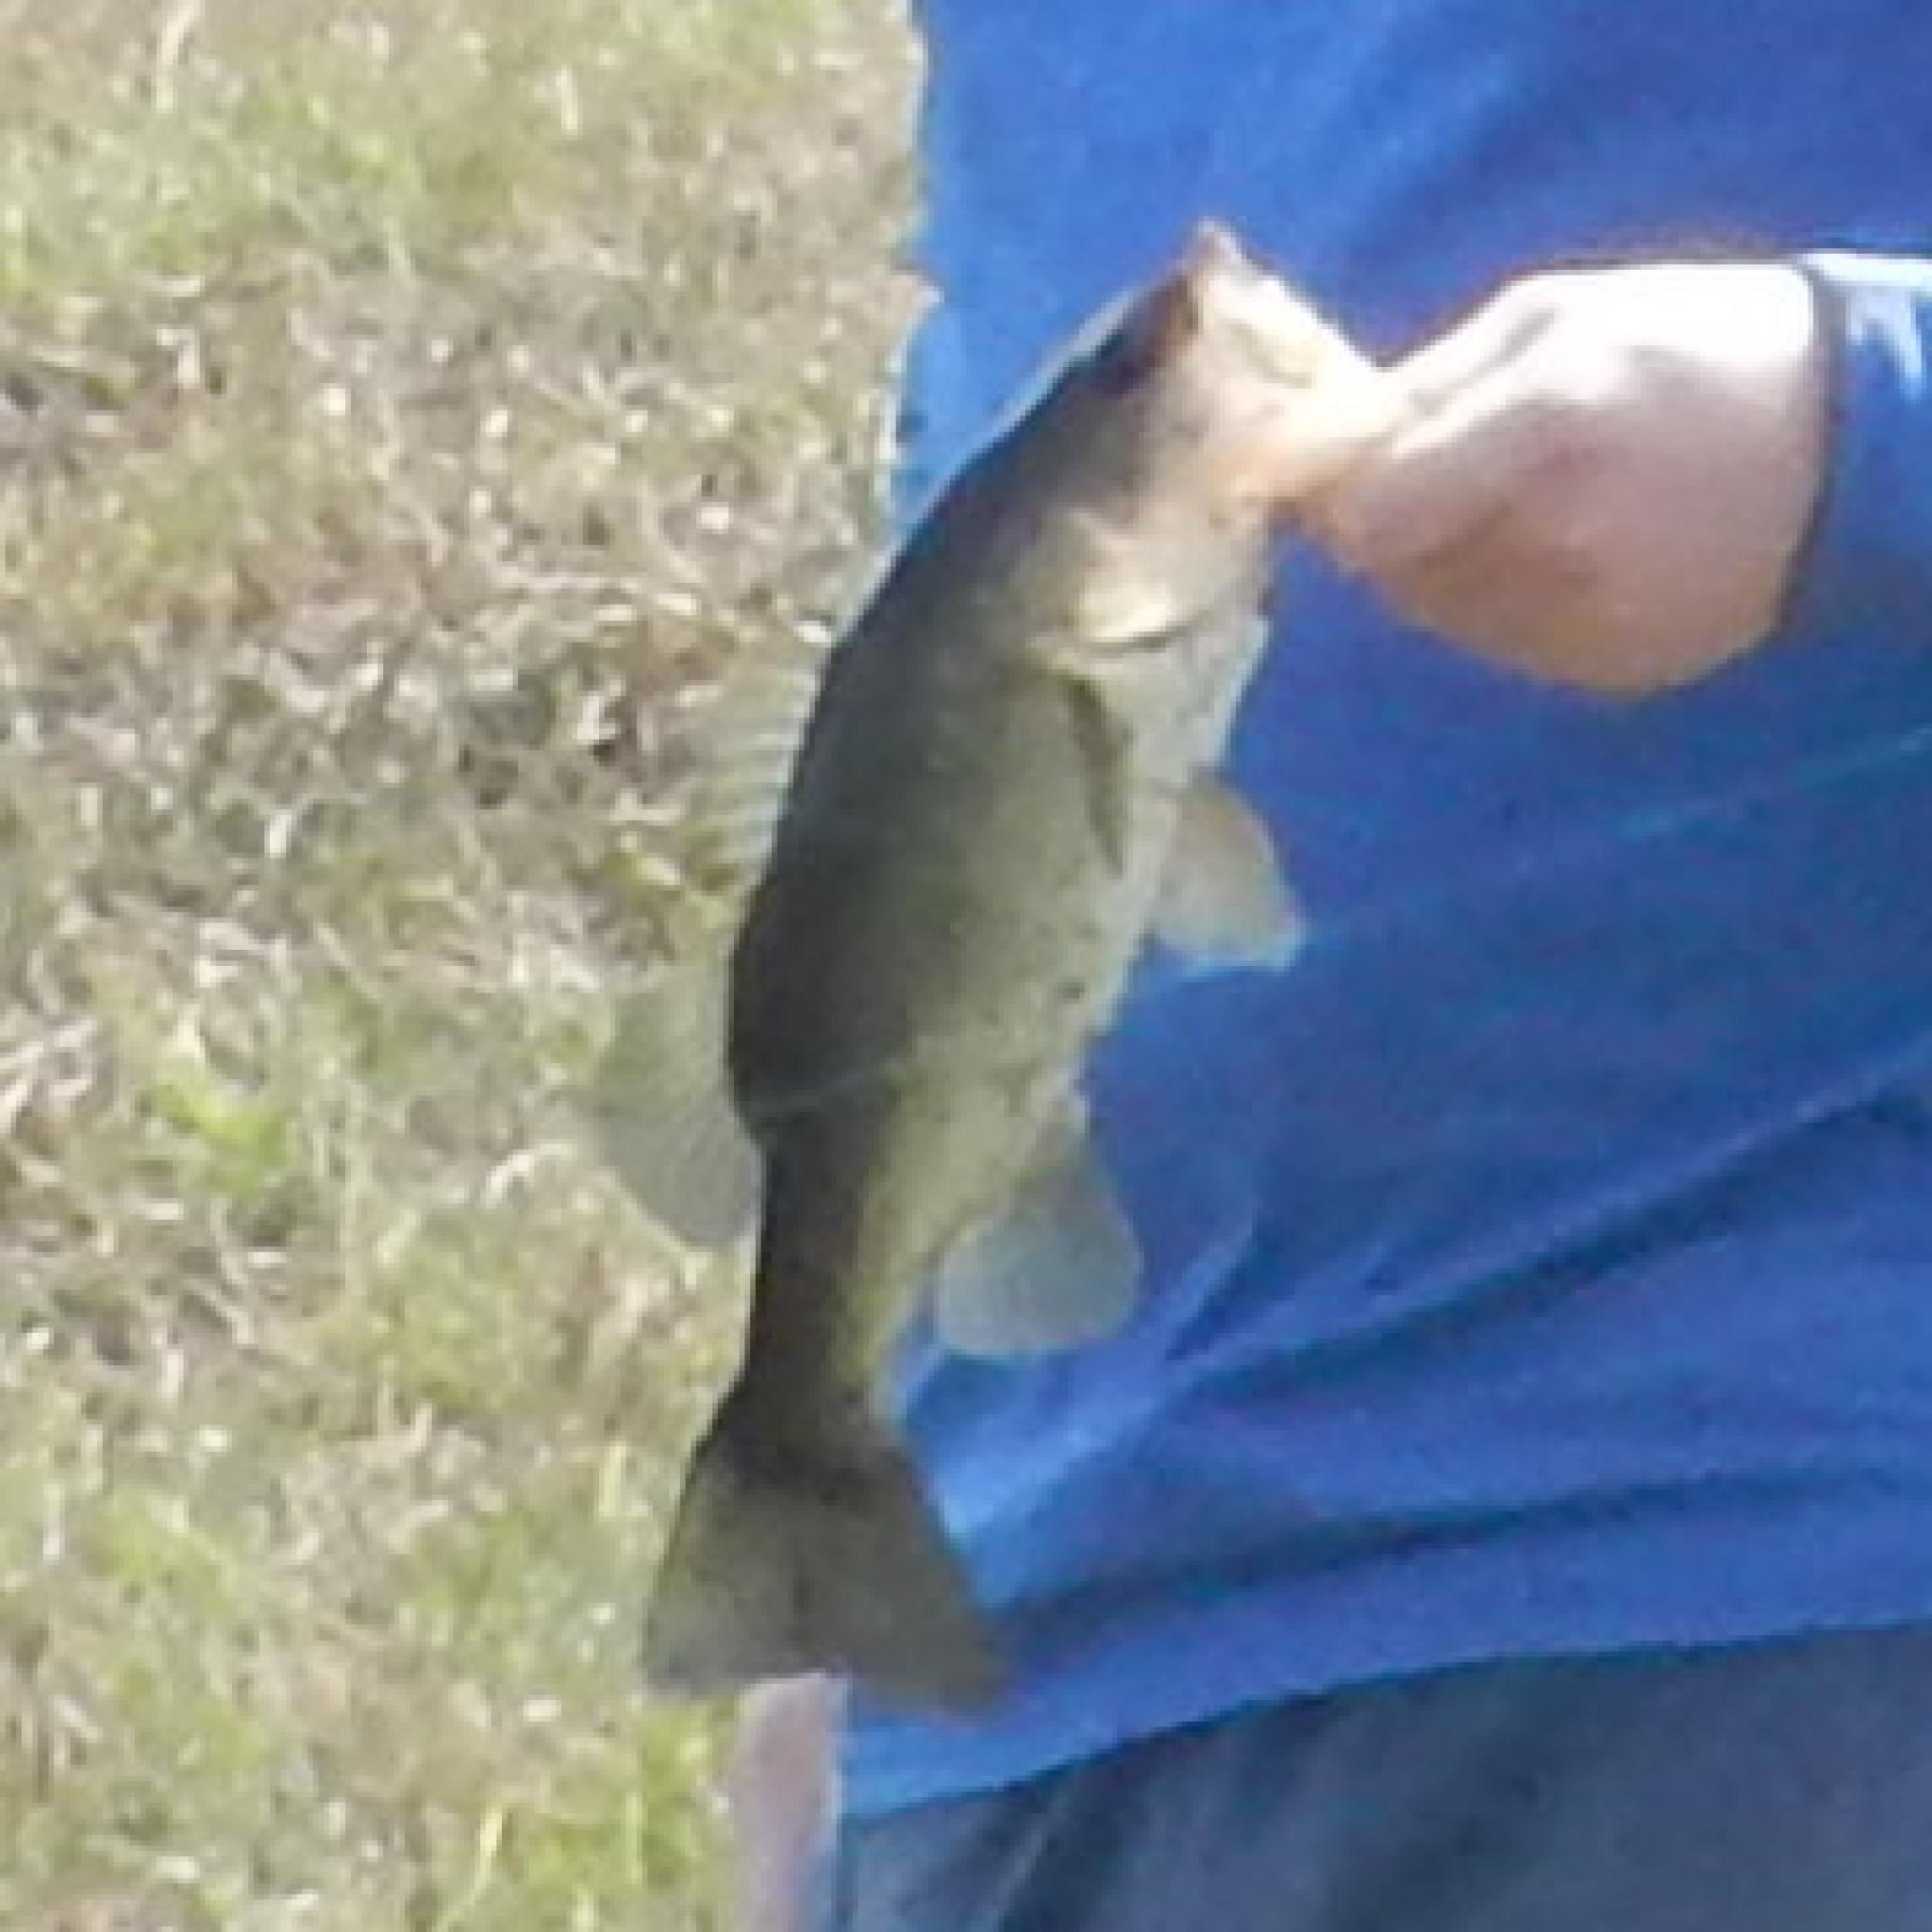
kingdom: Animalia
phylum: Chordata
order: Perciformes
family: Centrarchidae
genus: Micropterus
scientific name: Micropterus
